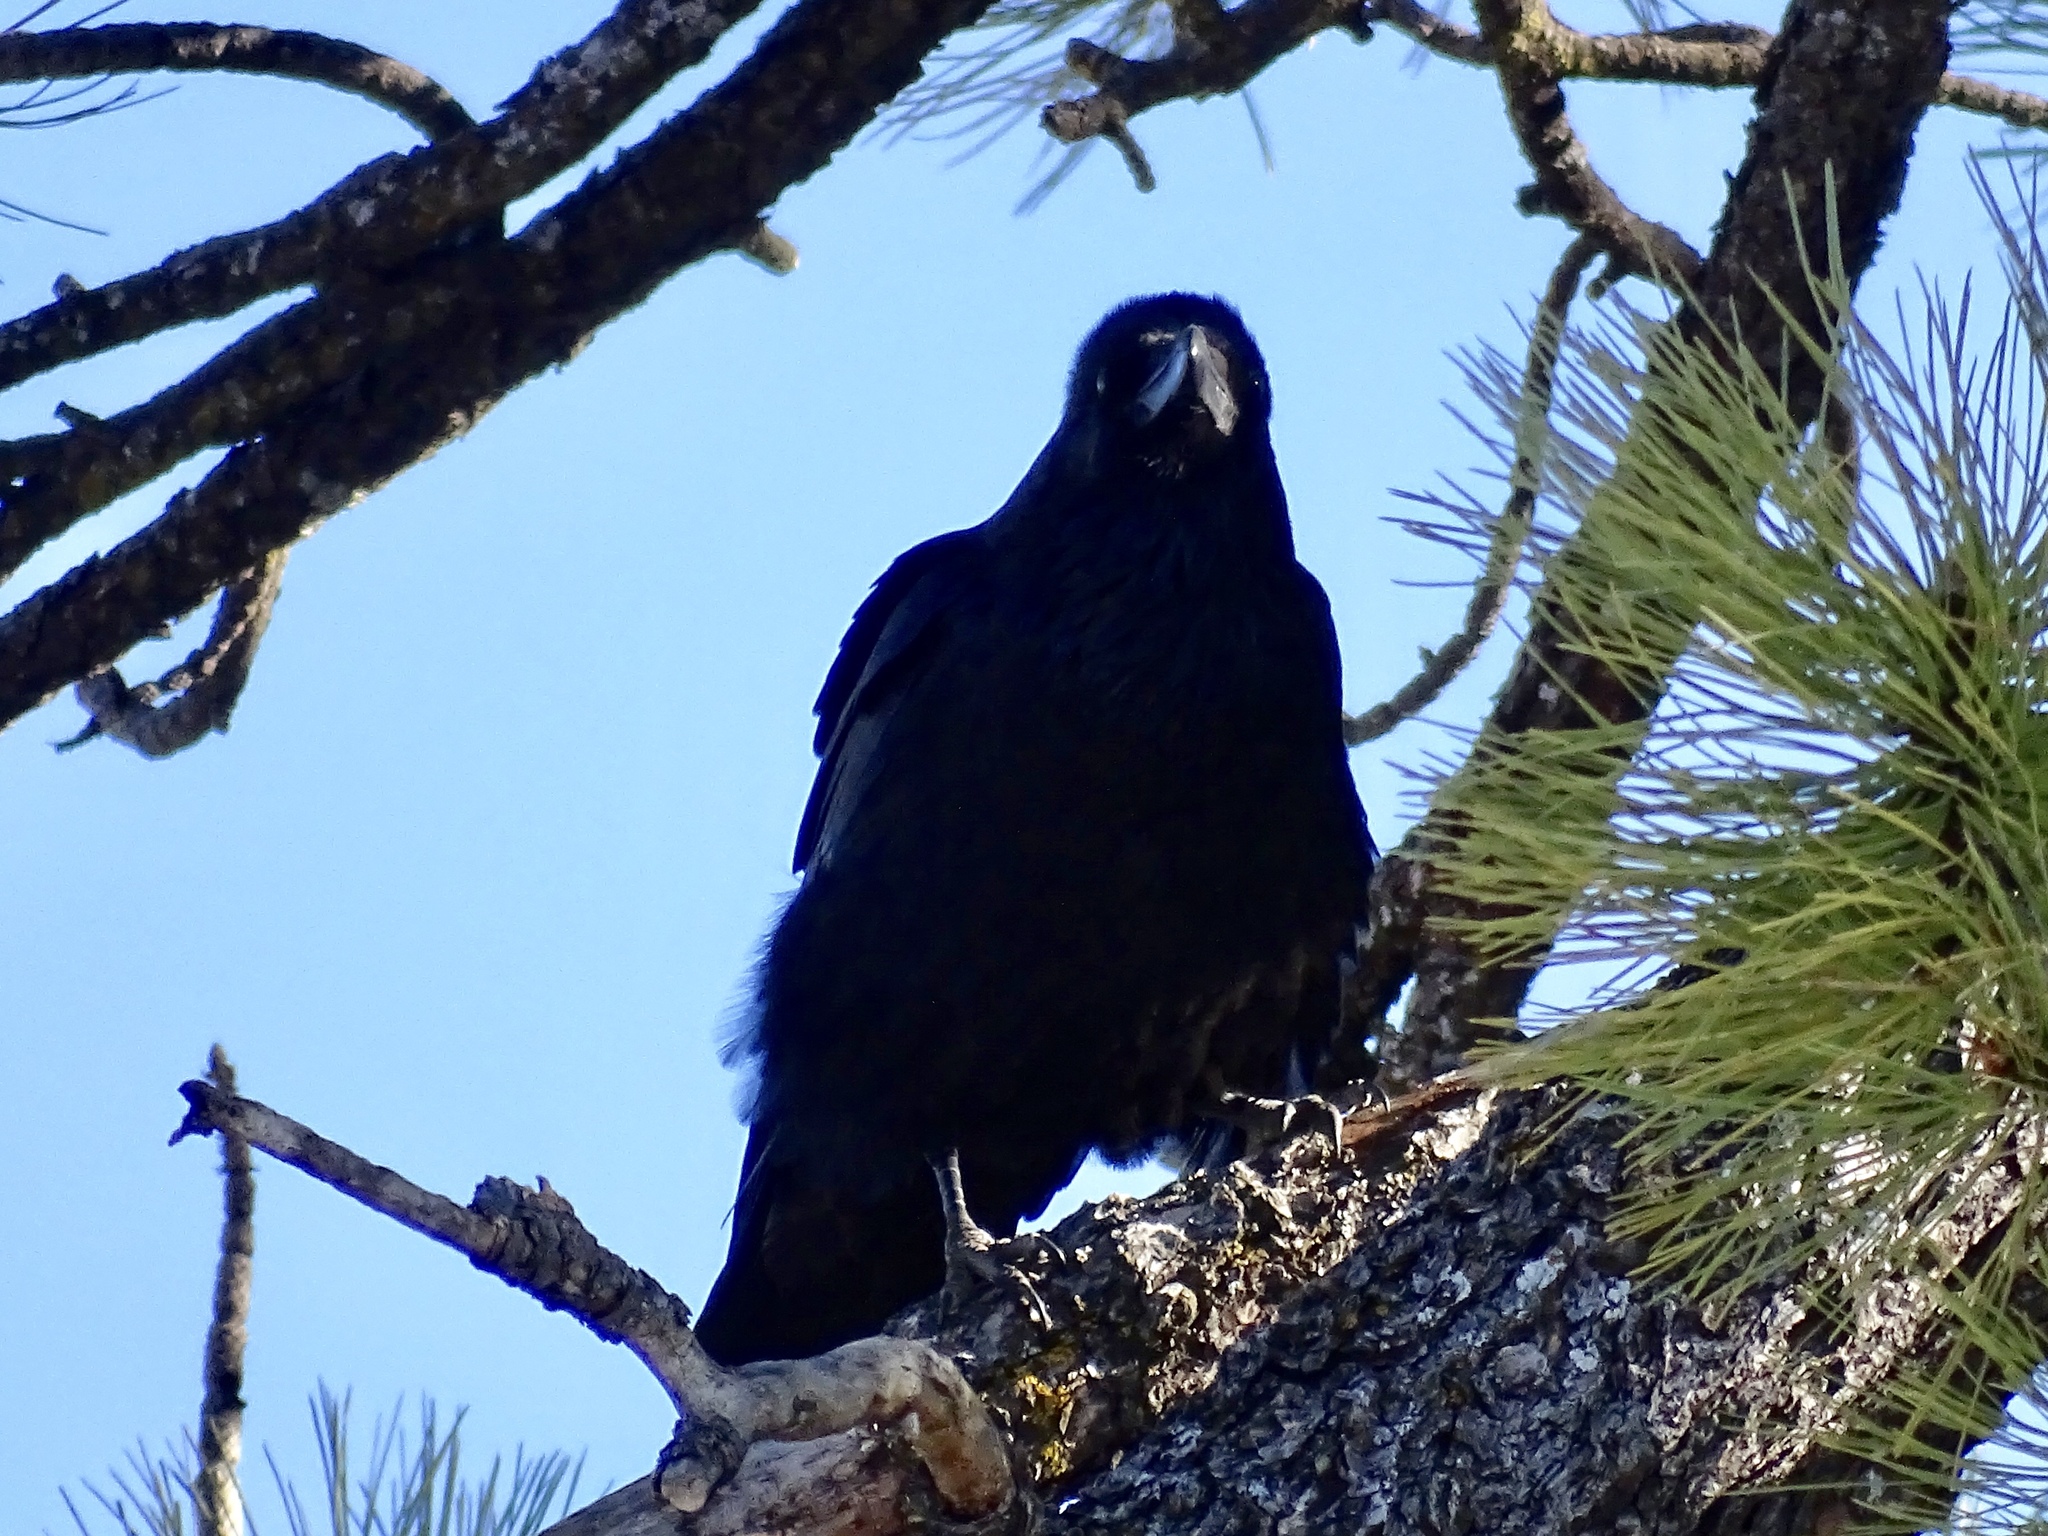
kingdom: Animalia
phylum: Chordata
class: Aves
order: Passeriformes
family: Corvidae
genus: Corvus
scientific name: Corvus corax
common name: Common raven
